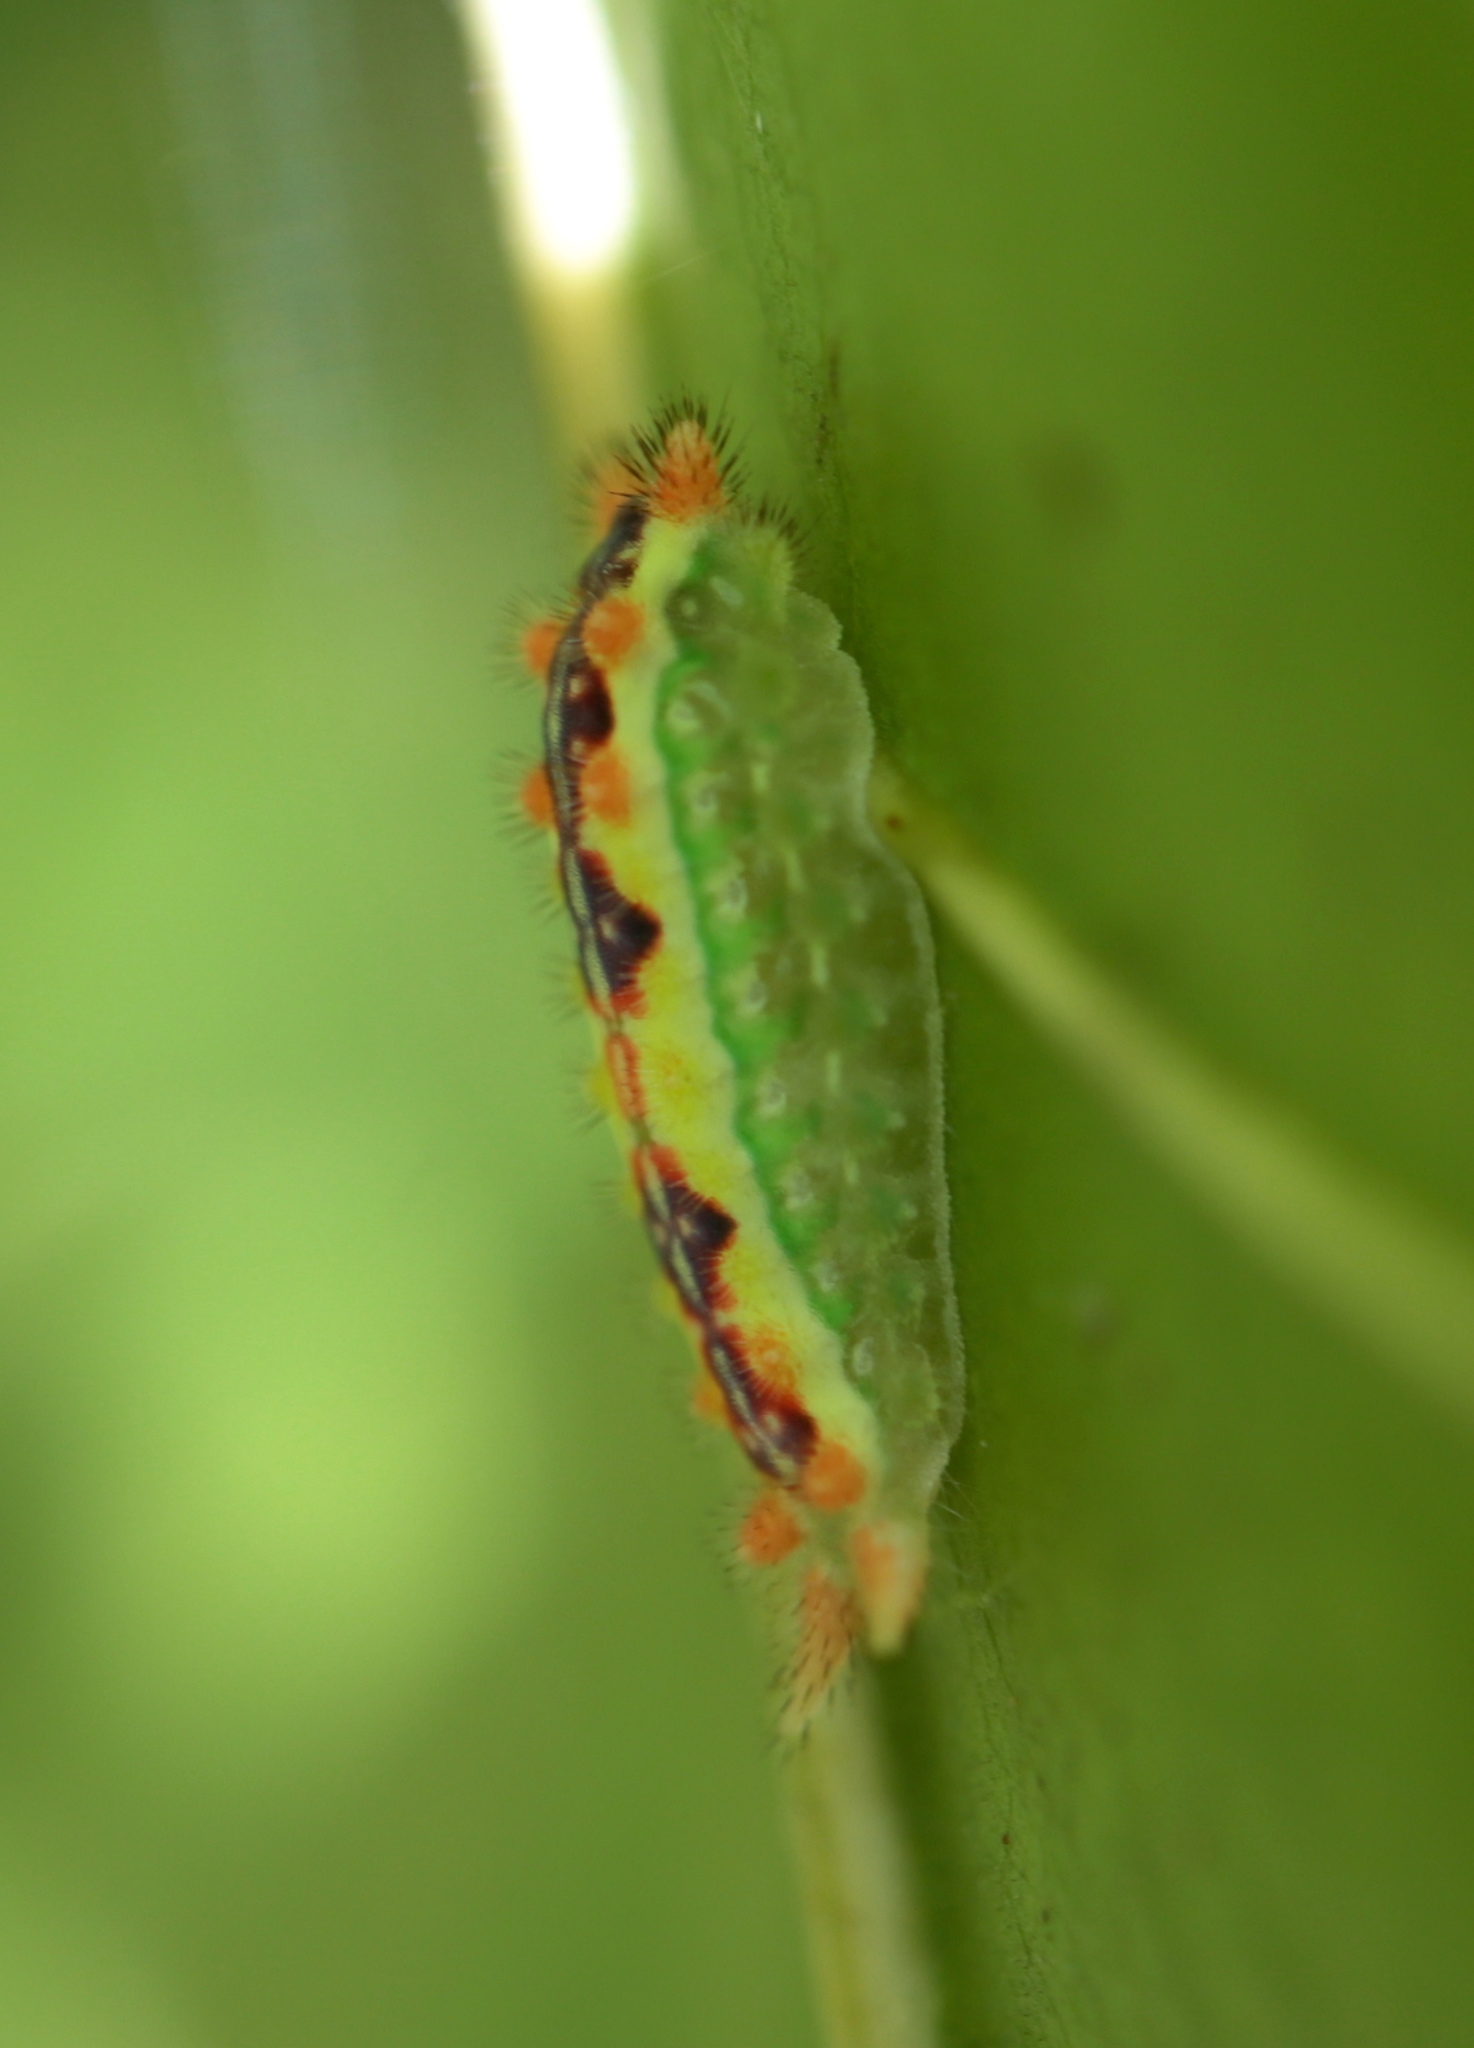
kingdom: Animalia
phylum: Arthropoda
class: Insecta
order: Lepidoptera
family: Limacodidae
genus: Adoneta
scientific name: Adoneta bicaudata
